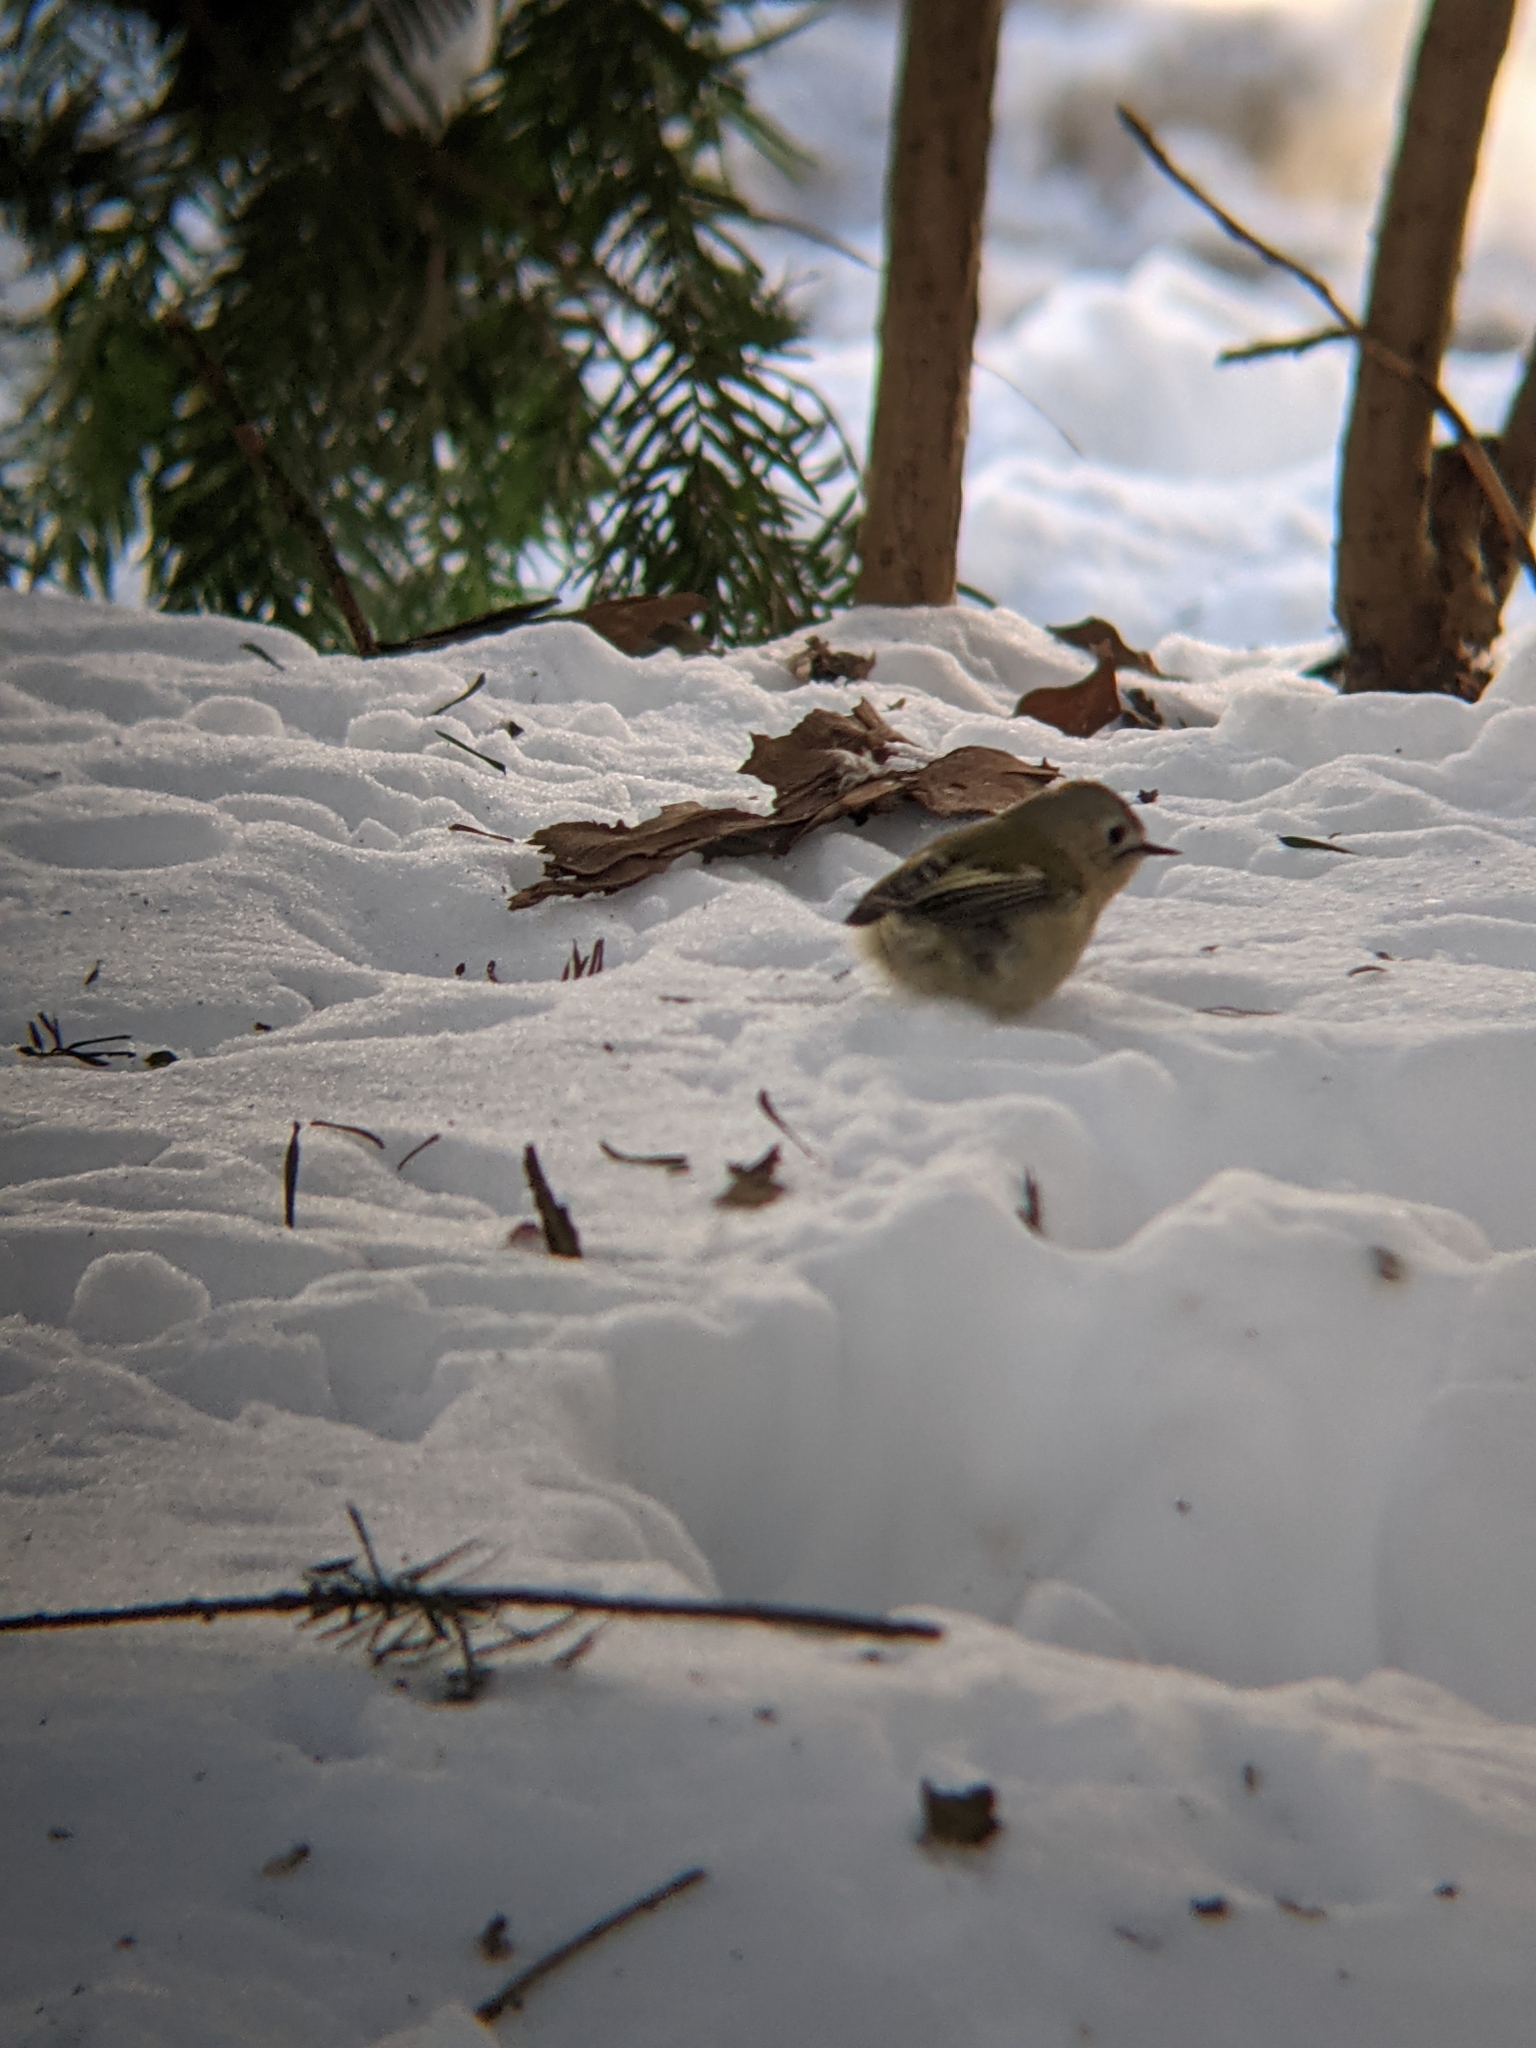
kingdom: Animalia
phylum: Chordata
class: Aves
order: Passeriformes
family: Regulidae
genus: Regulus
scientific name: Regulus regulus
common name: Goldcrest
